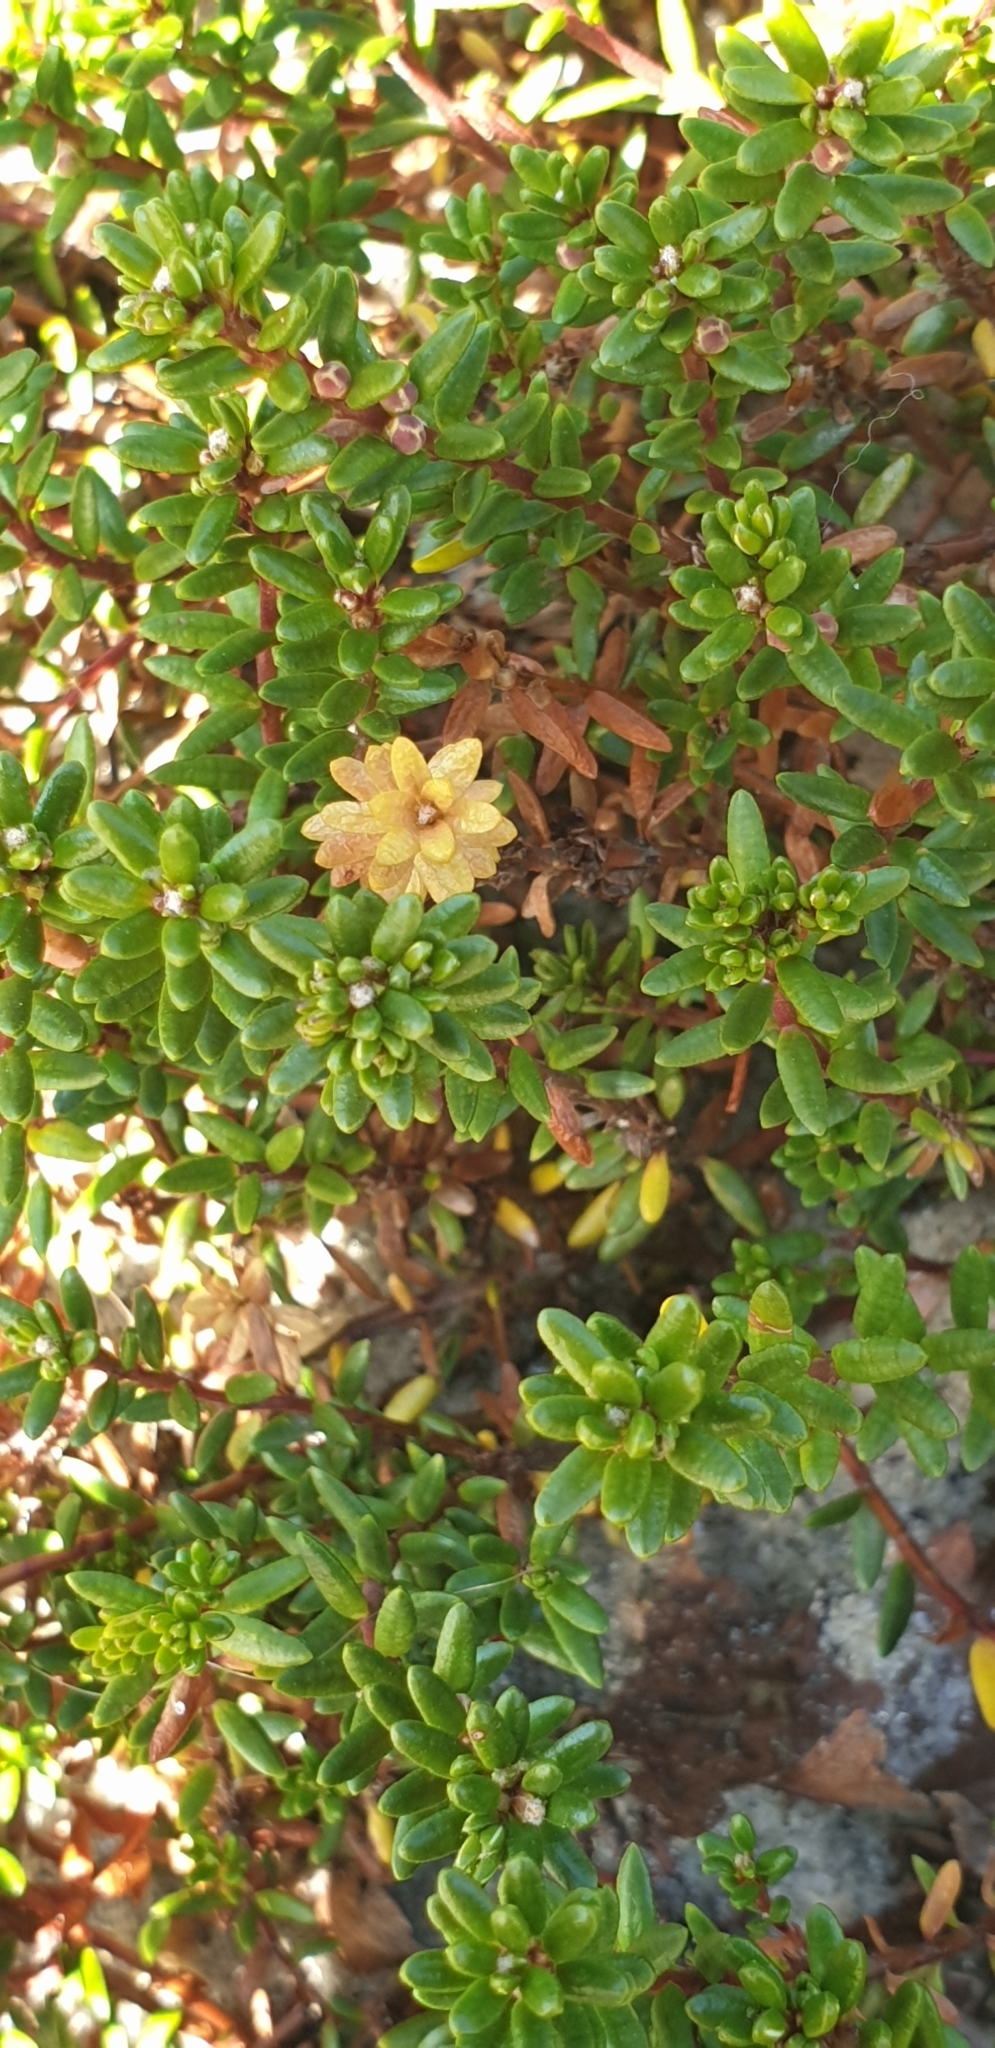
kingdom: Plantae
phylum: Tracheophyta
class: Magnoliopsida
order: Ericales
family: Ericaceae
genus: Empetrum
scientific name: Empetrum nigrum
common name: Black crowberry
